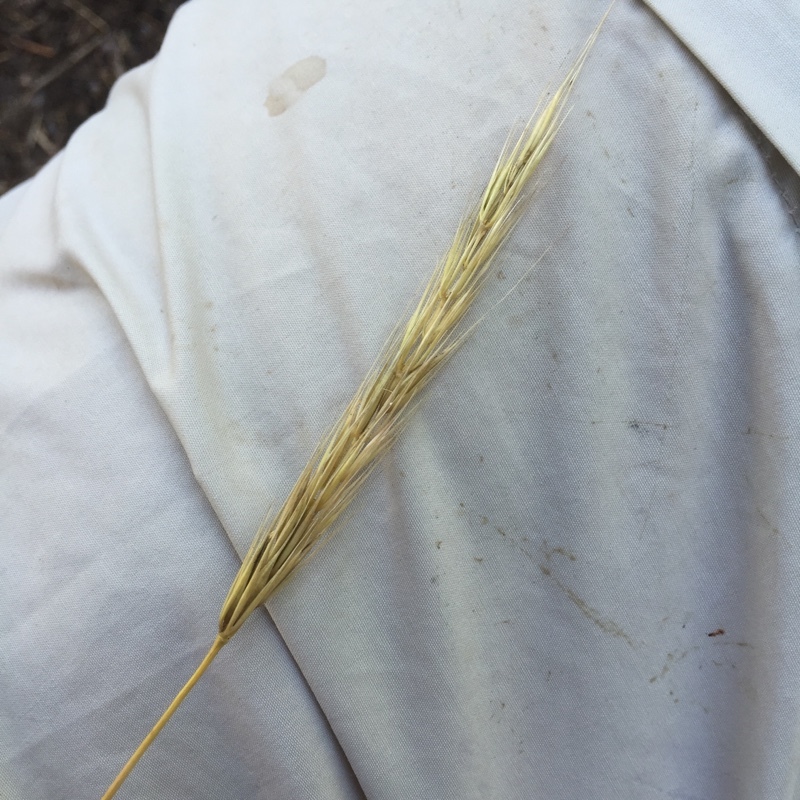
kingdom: Plantae
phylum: Tracheophyta
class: Liliopsida
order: Poales
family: Poaceae
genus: Hordelymus
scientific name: Hordelymus europaeus
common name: Wood-barley
